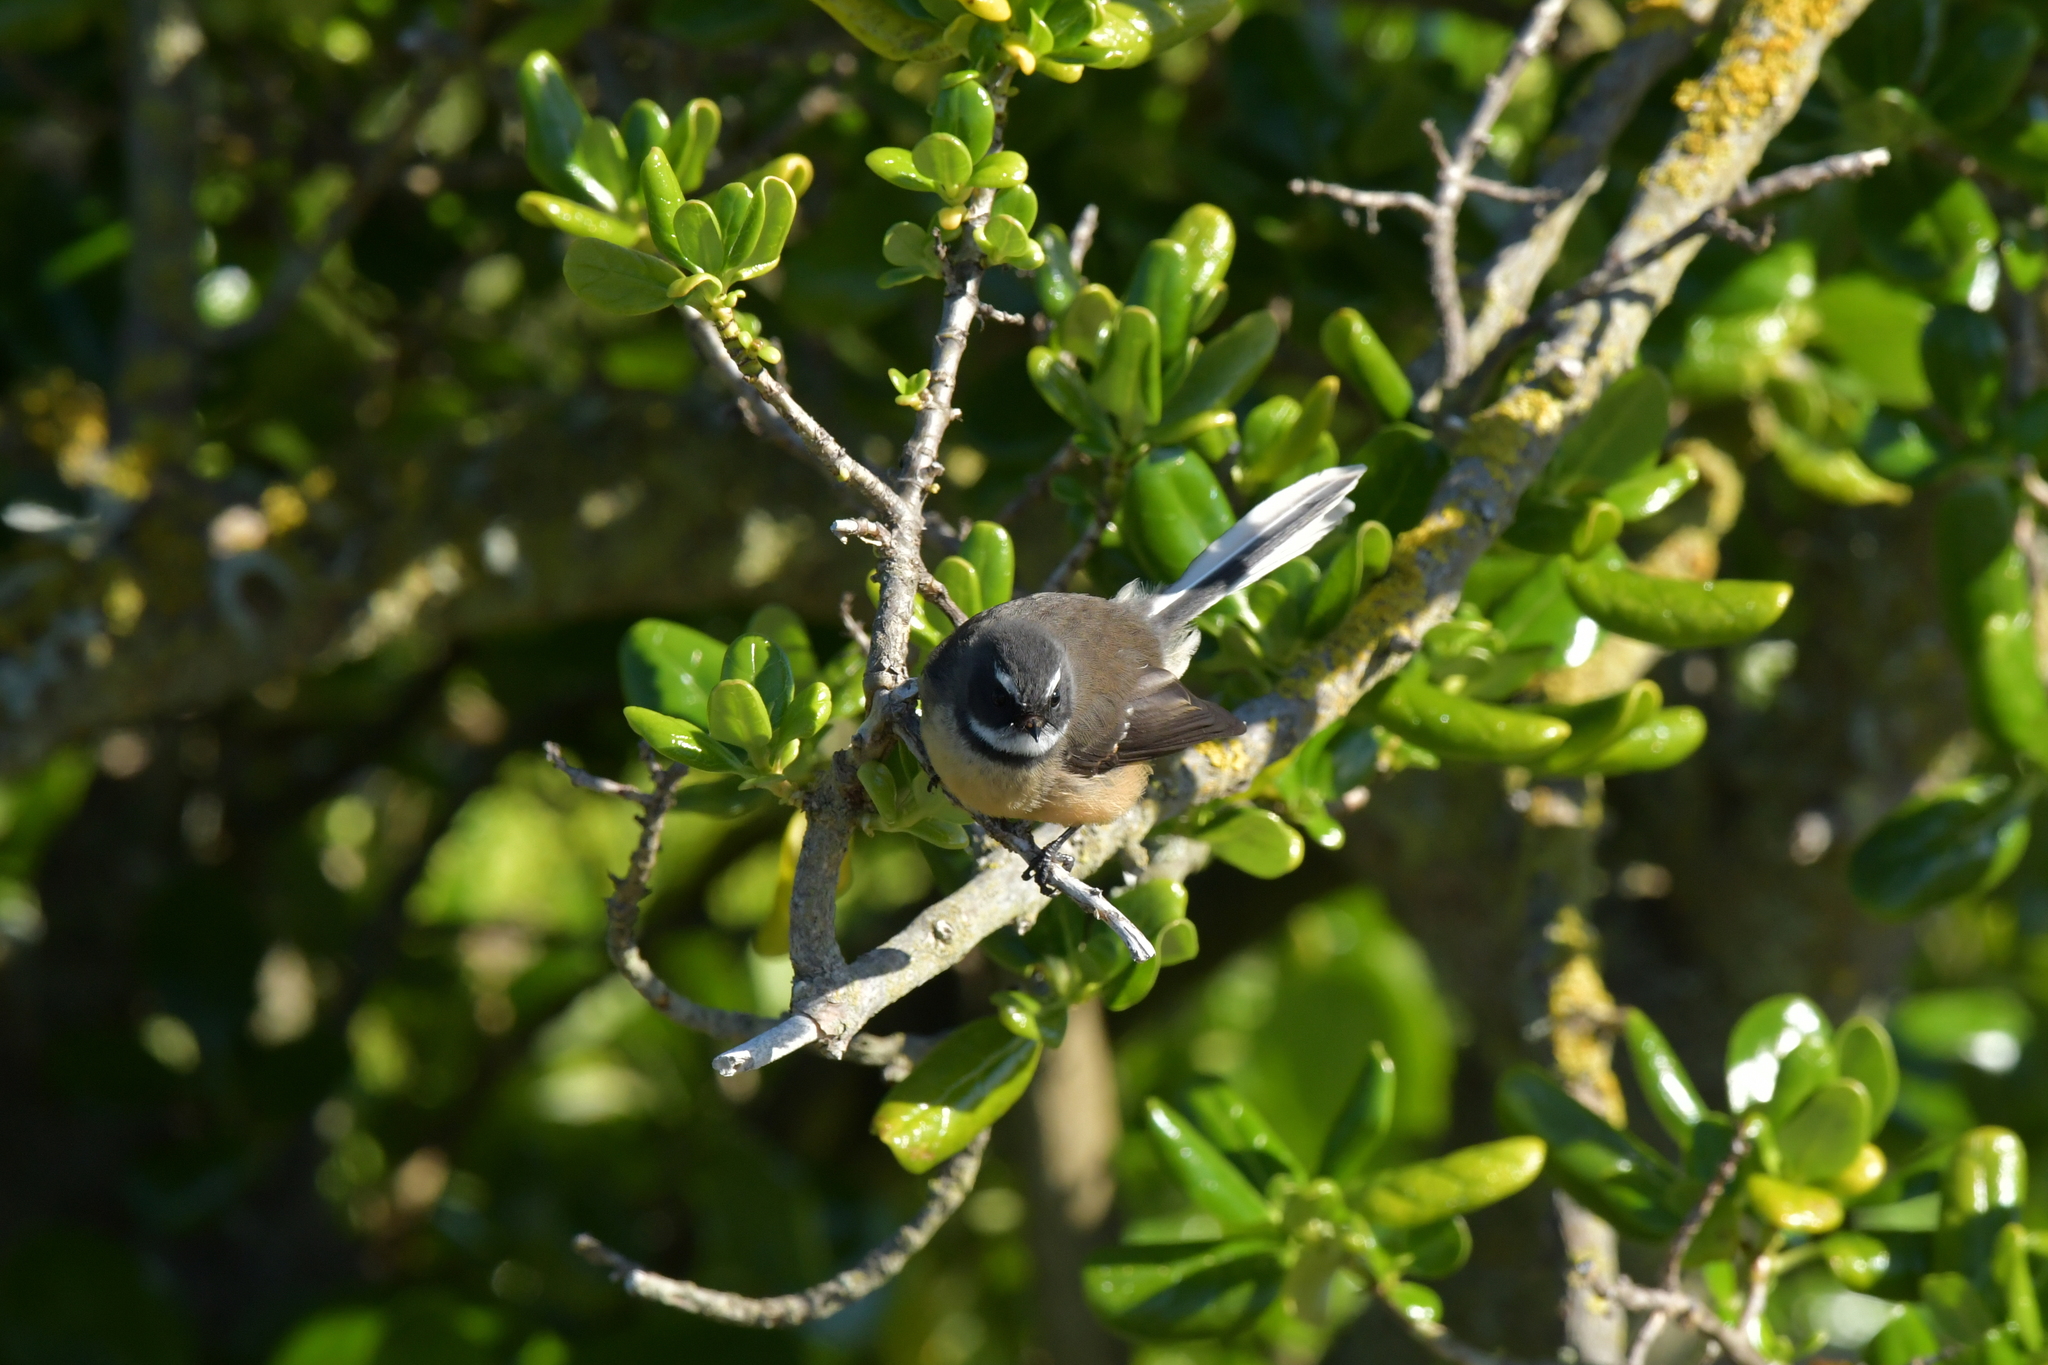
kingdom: Animalia
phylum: Chordata
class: Aves
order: Passeriformes
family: Rhipiduridae
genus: Rhipidura
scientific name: Rhipidura fuliginosa
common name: New zealand fantail
